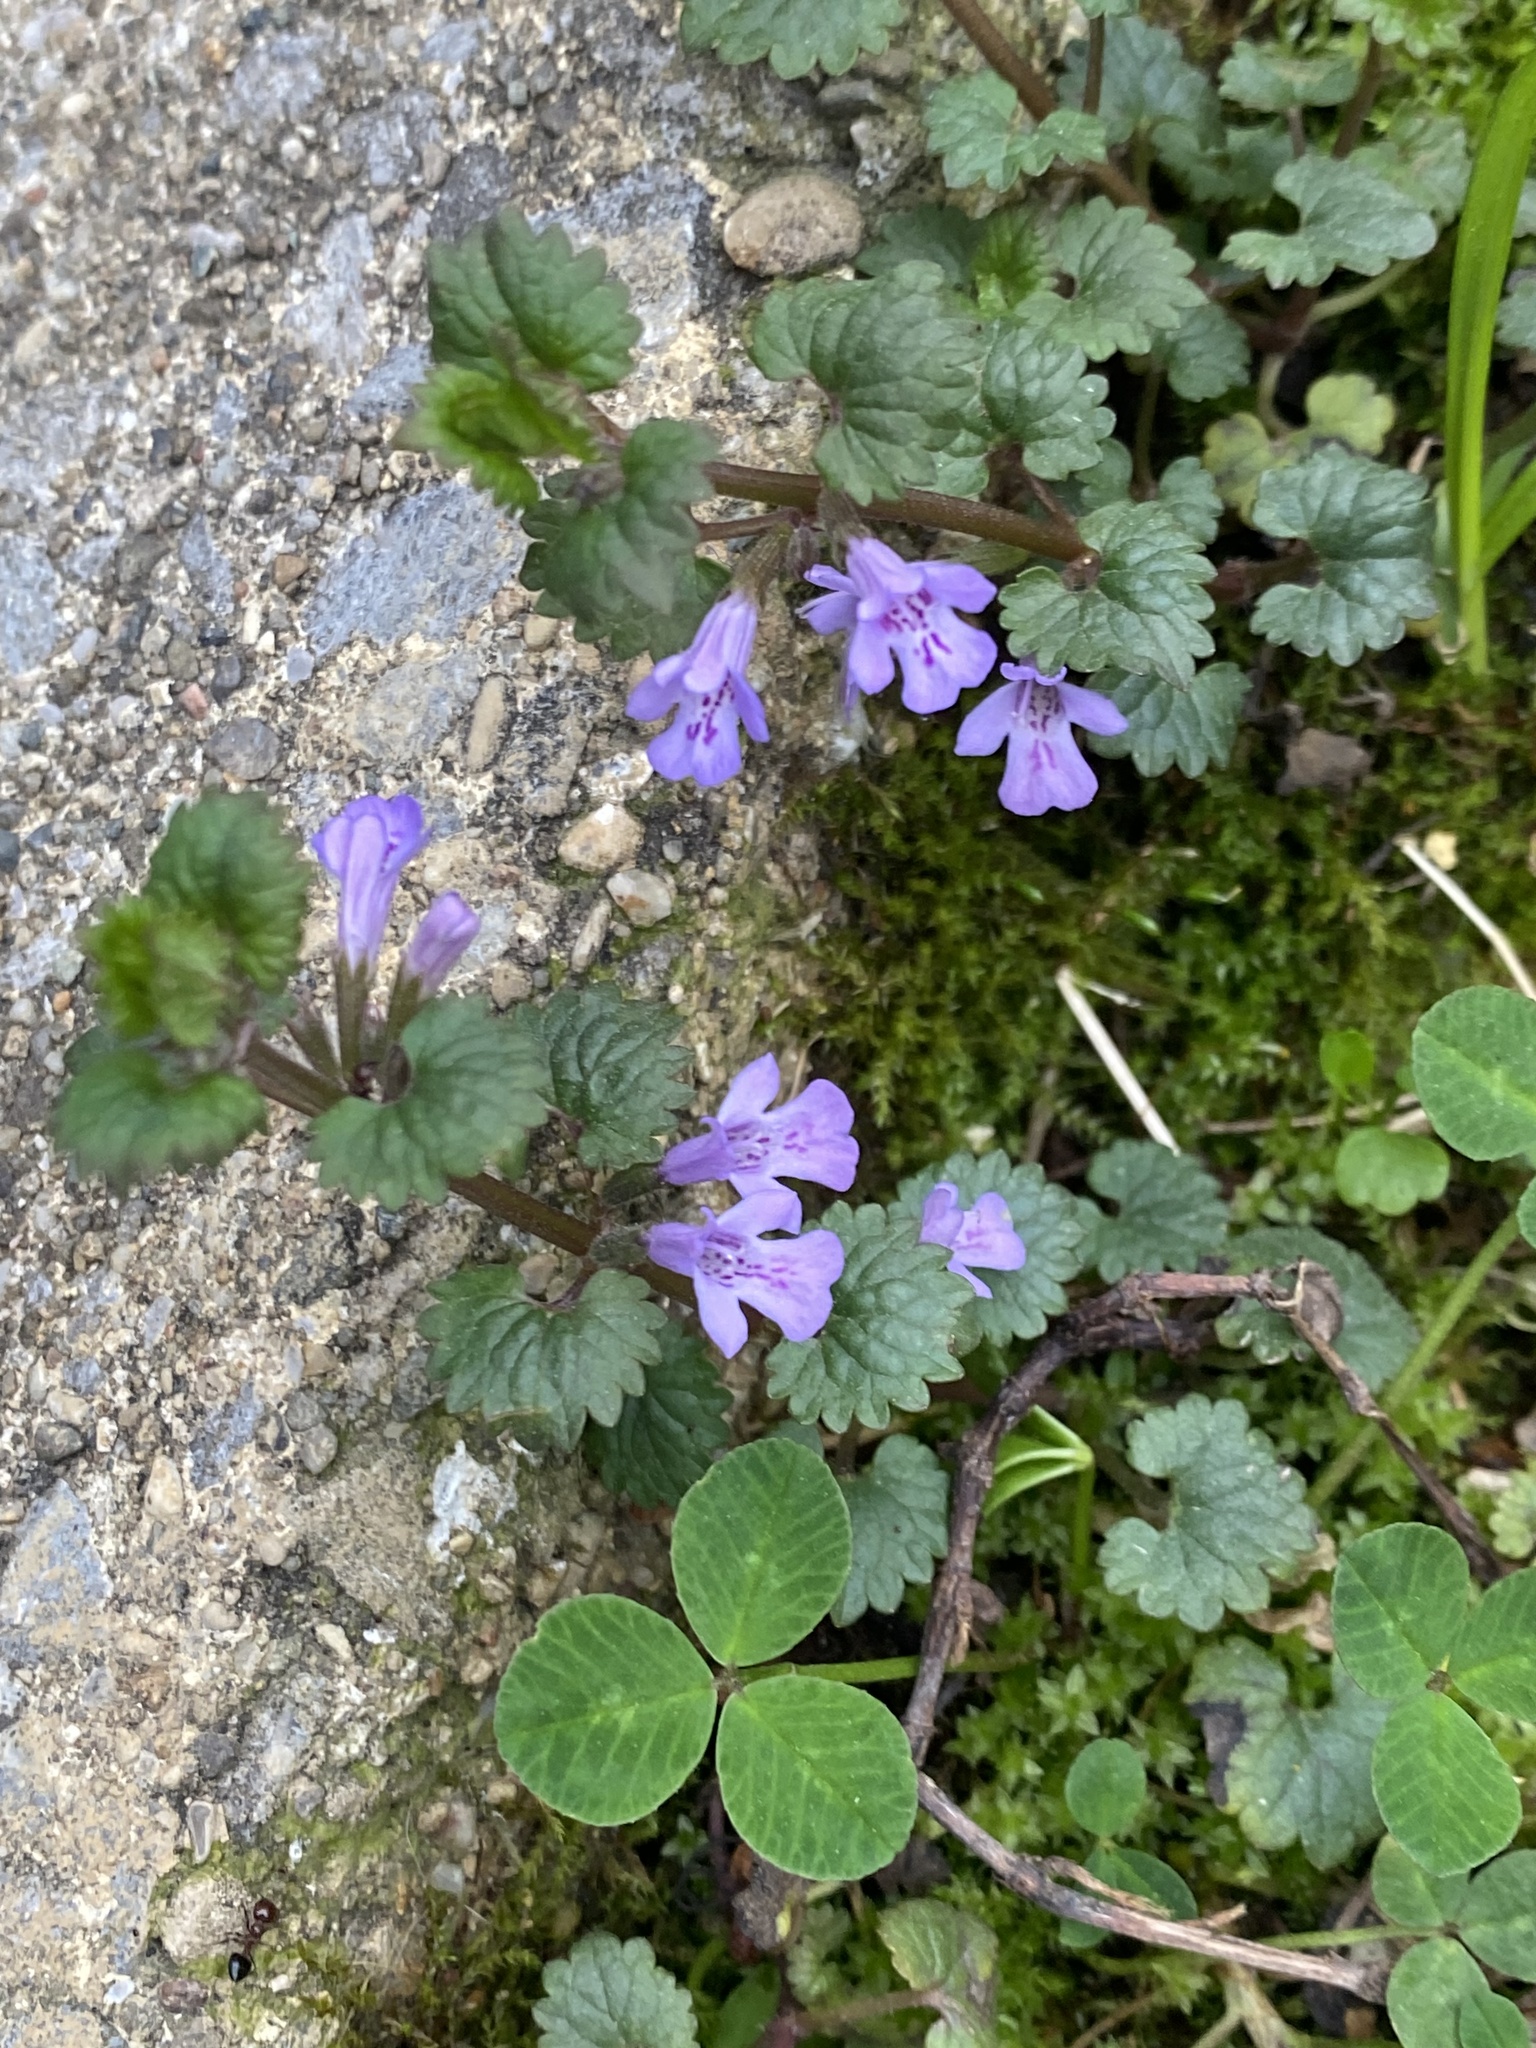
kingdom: Plantae
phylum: Tracheophyta
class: Magnoliopsida
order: Lamiales
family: Lamiaceae
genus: Glechoma
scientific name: Glechoma hederacea
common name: Ground ivy
